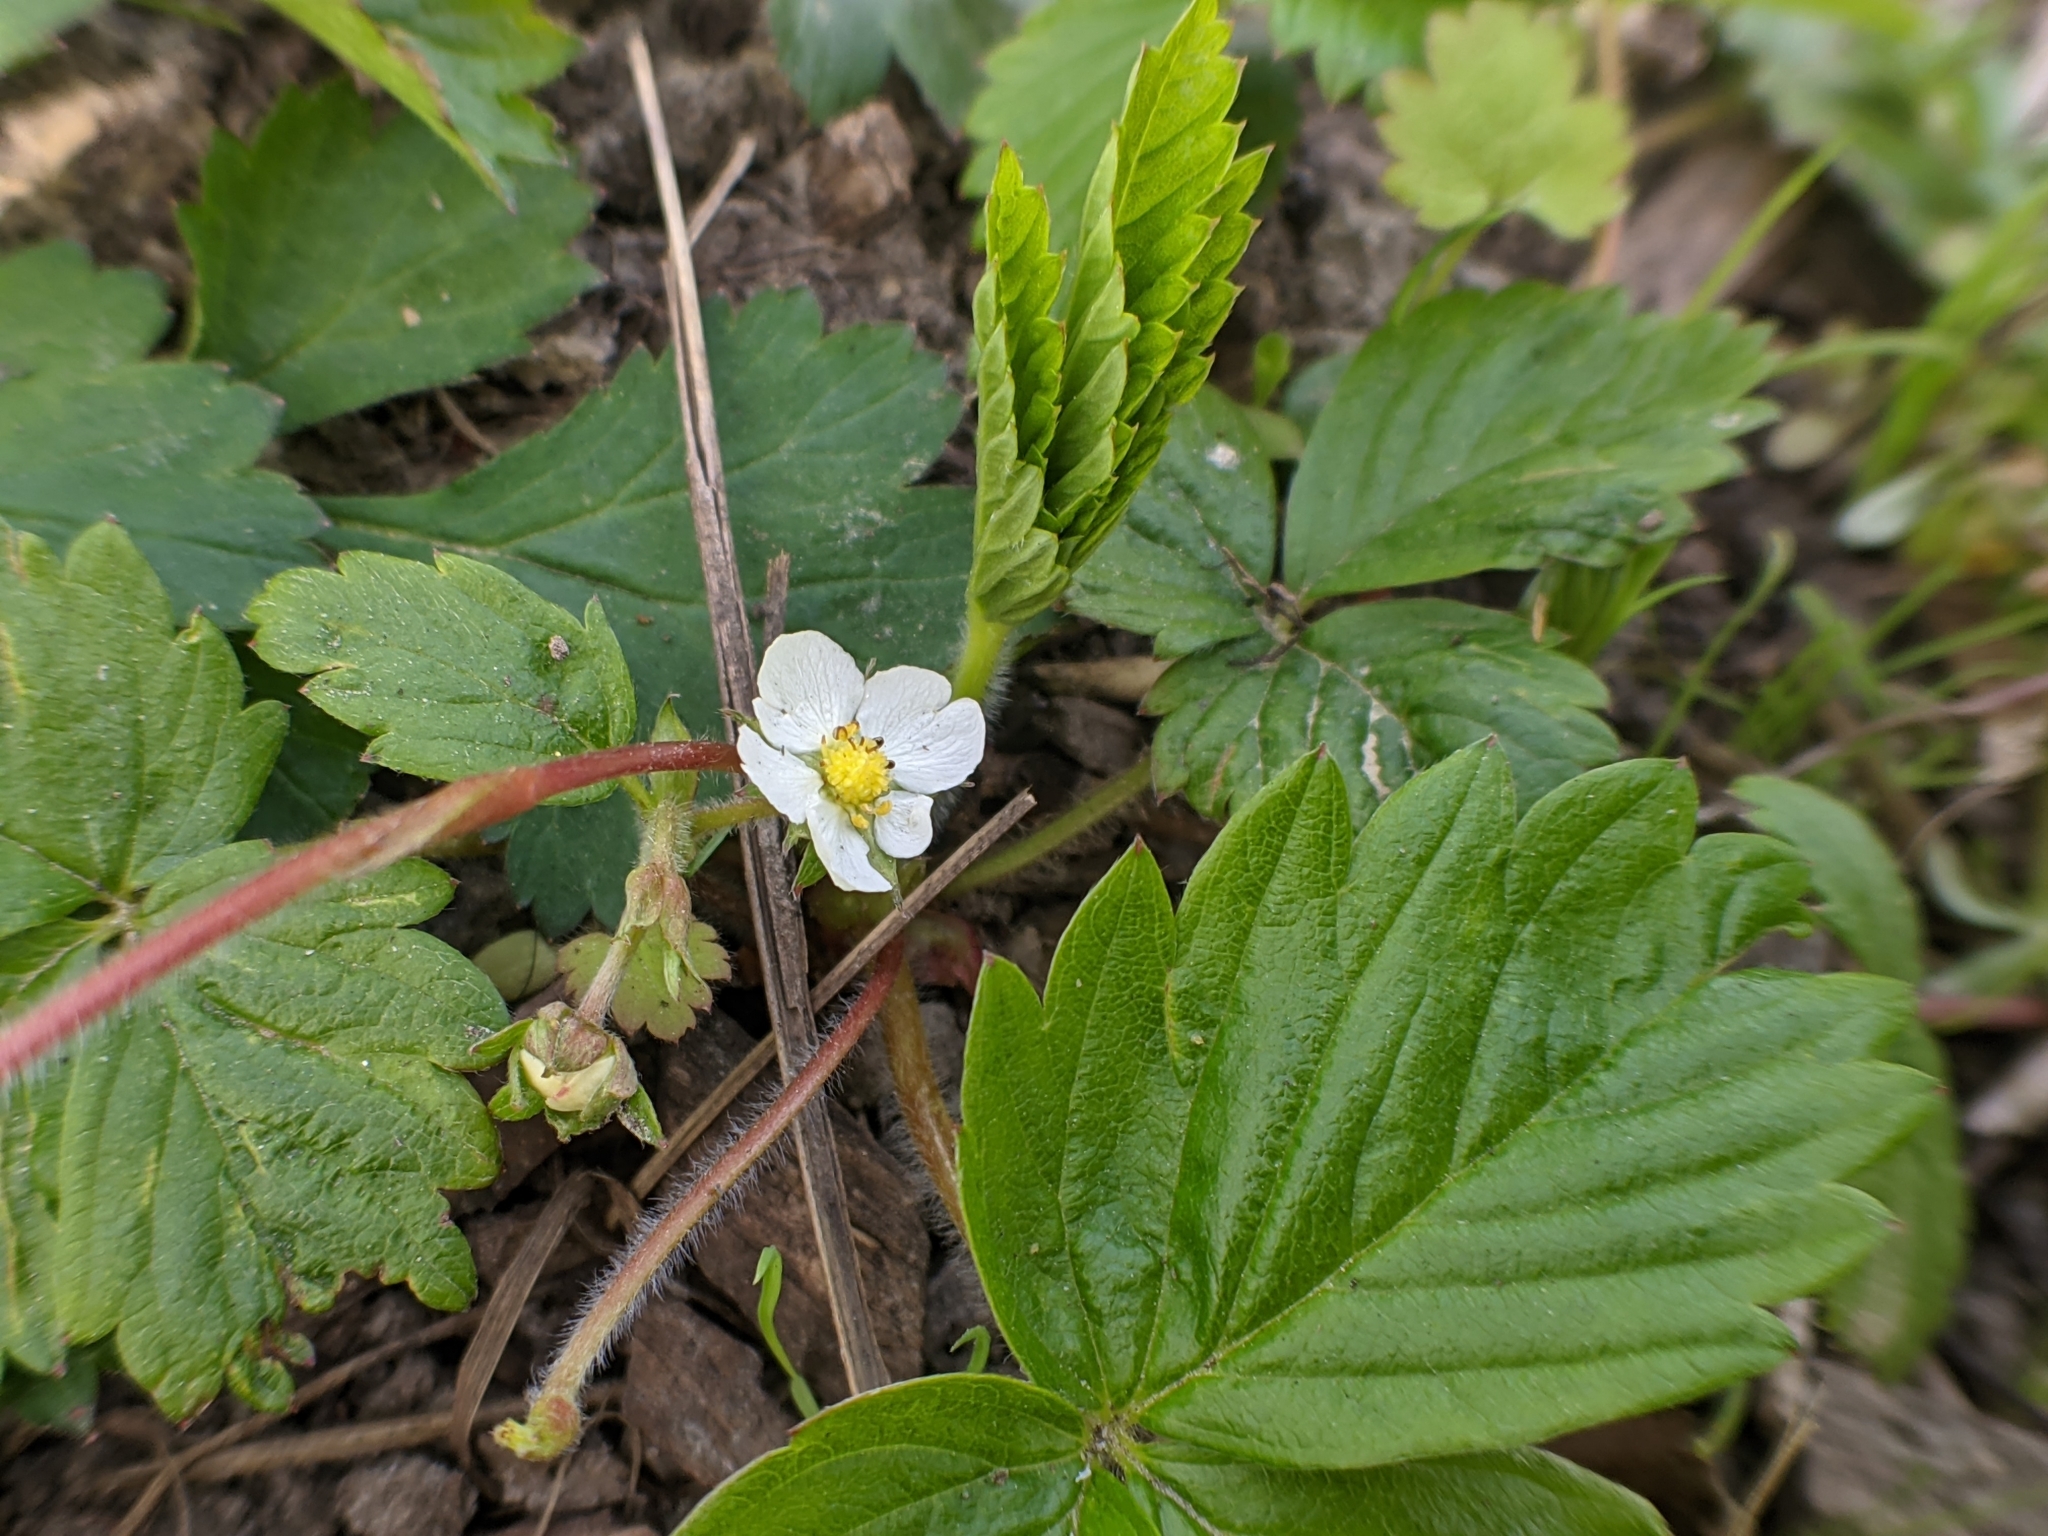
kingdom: Plantae
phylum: Tracheophyta
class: Magnoliopsida
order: Rosales
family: Rosaceae
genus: Fragaria
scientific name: Fragaria vesca
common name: Wild strawberry
